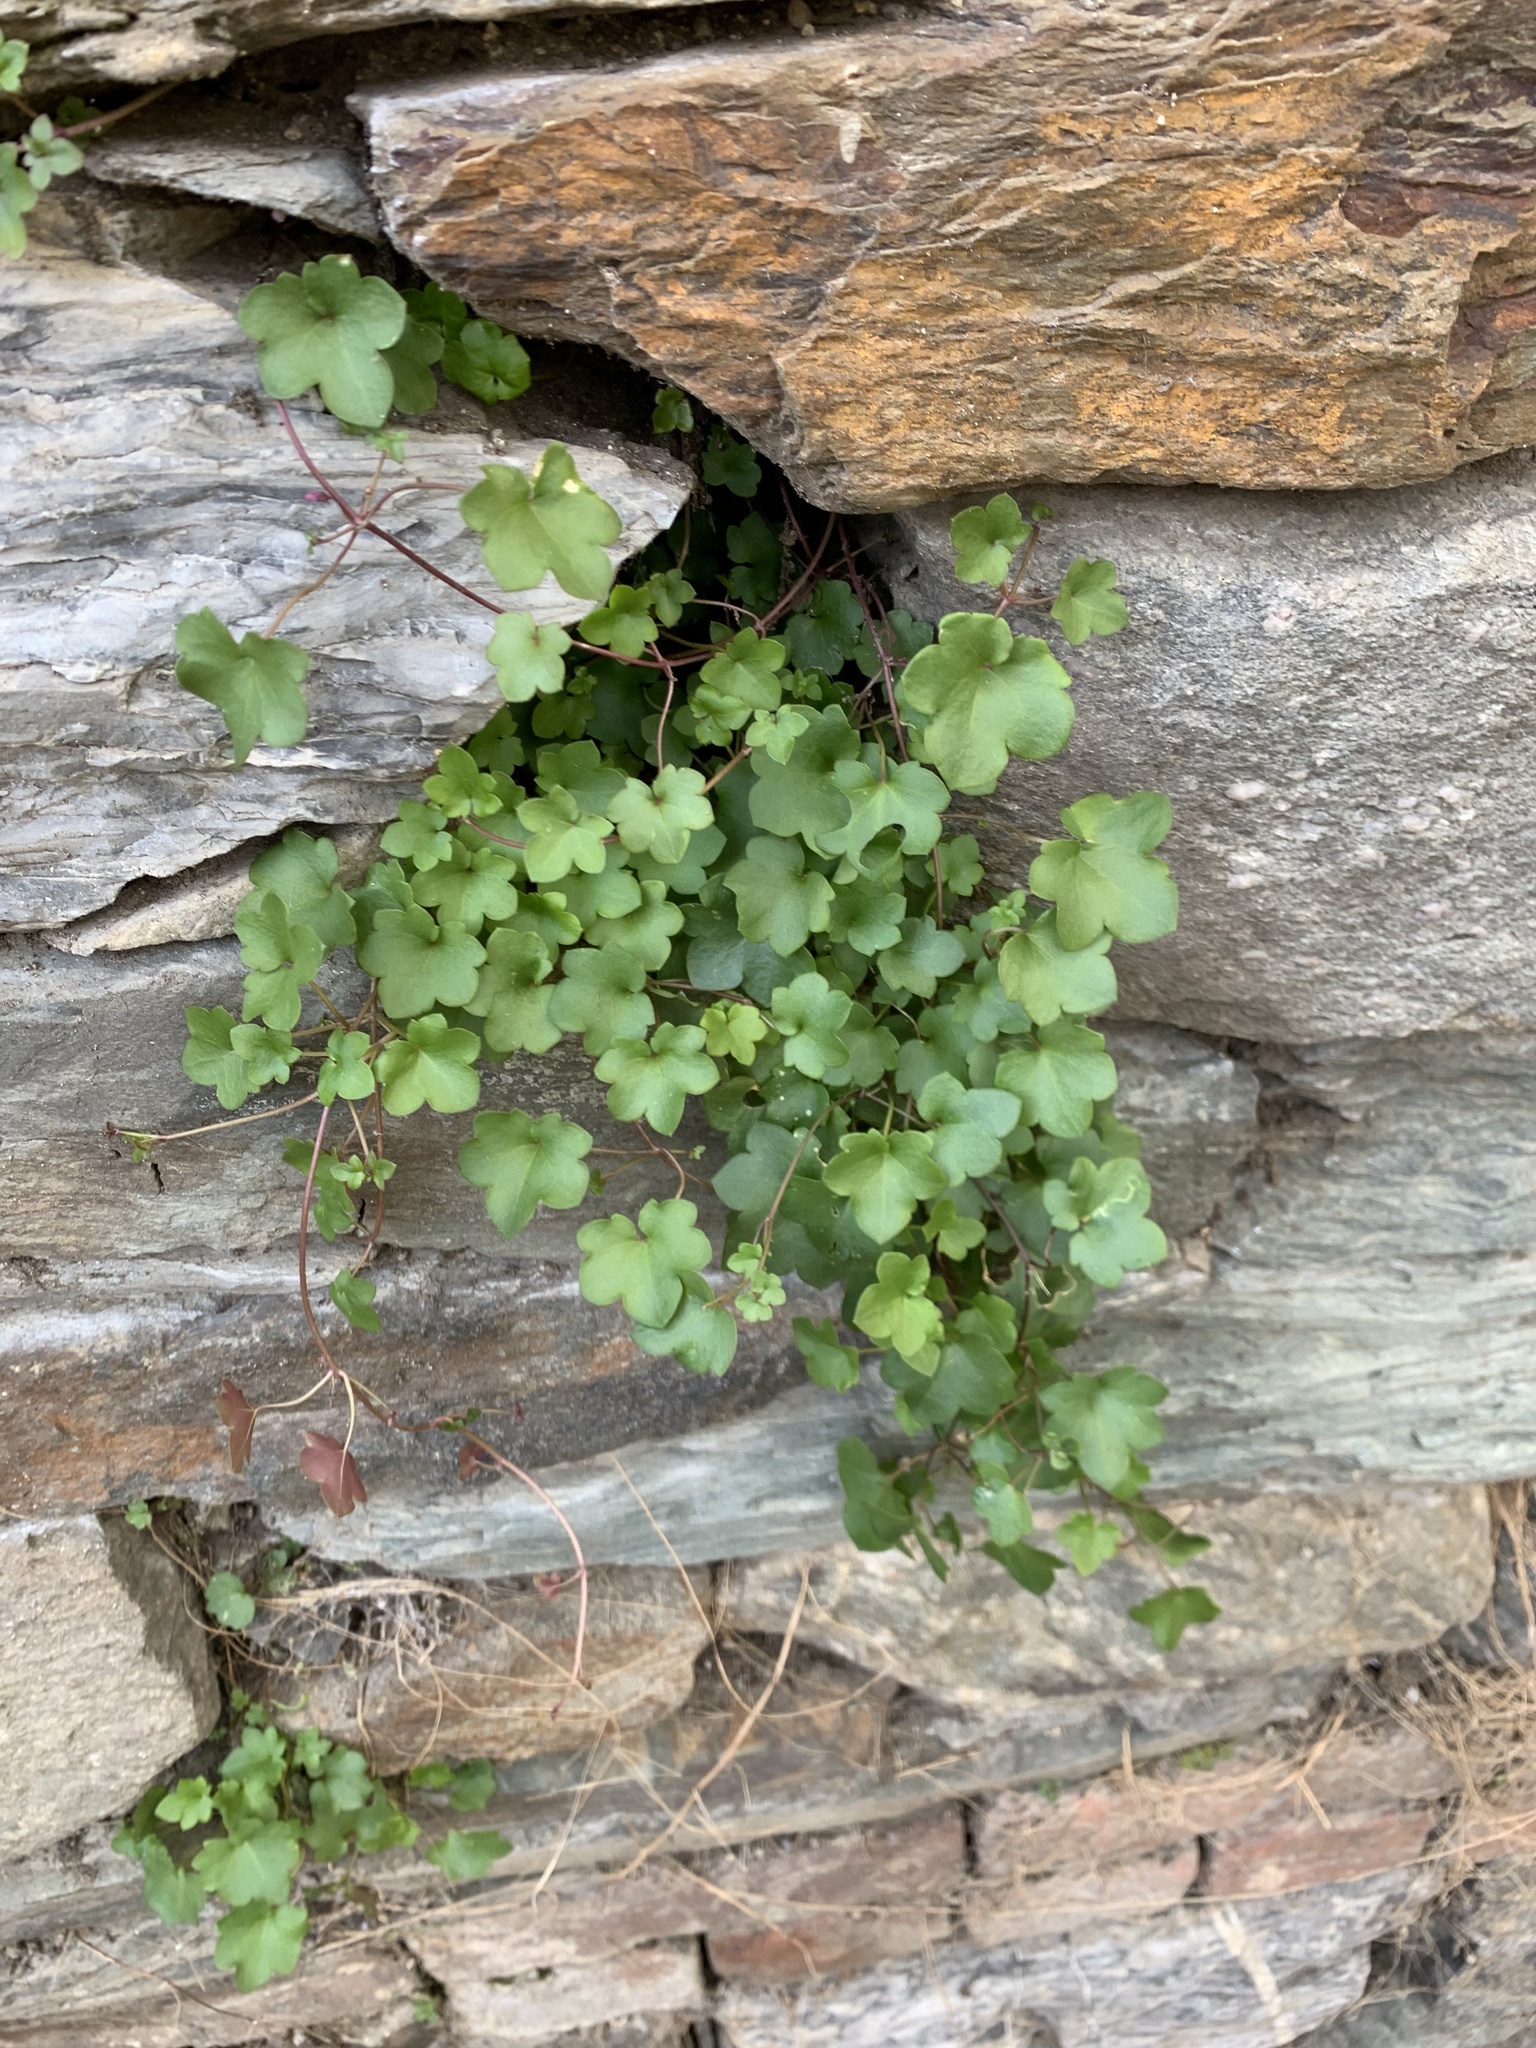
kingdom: Plantae
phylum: Tracheophyta
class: Magnoliopsida
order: Lamiales
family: Plantaginaceae
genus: Cymbalaria
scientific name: Cymbalaria muralis
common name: Ivy-leaved toadflax
